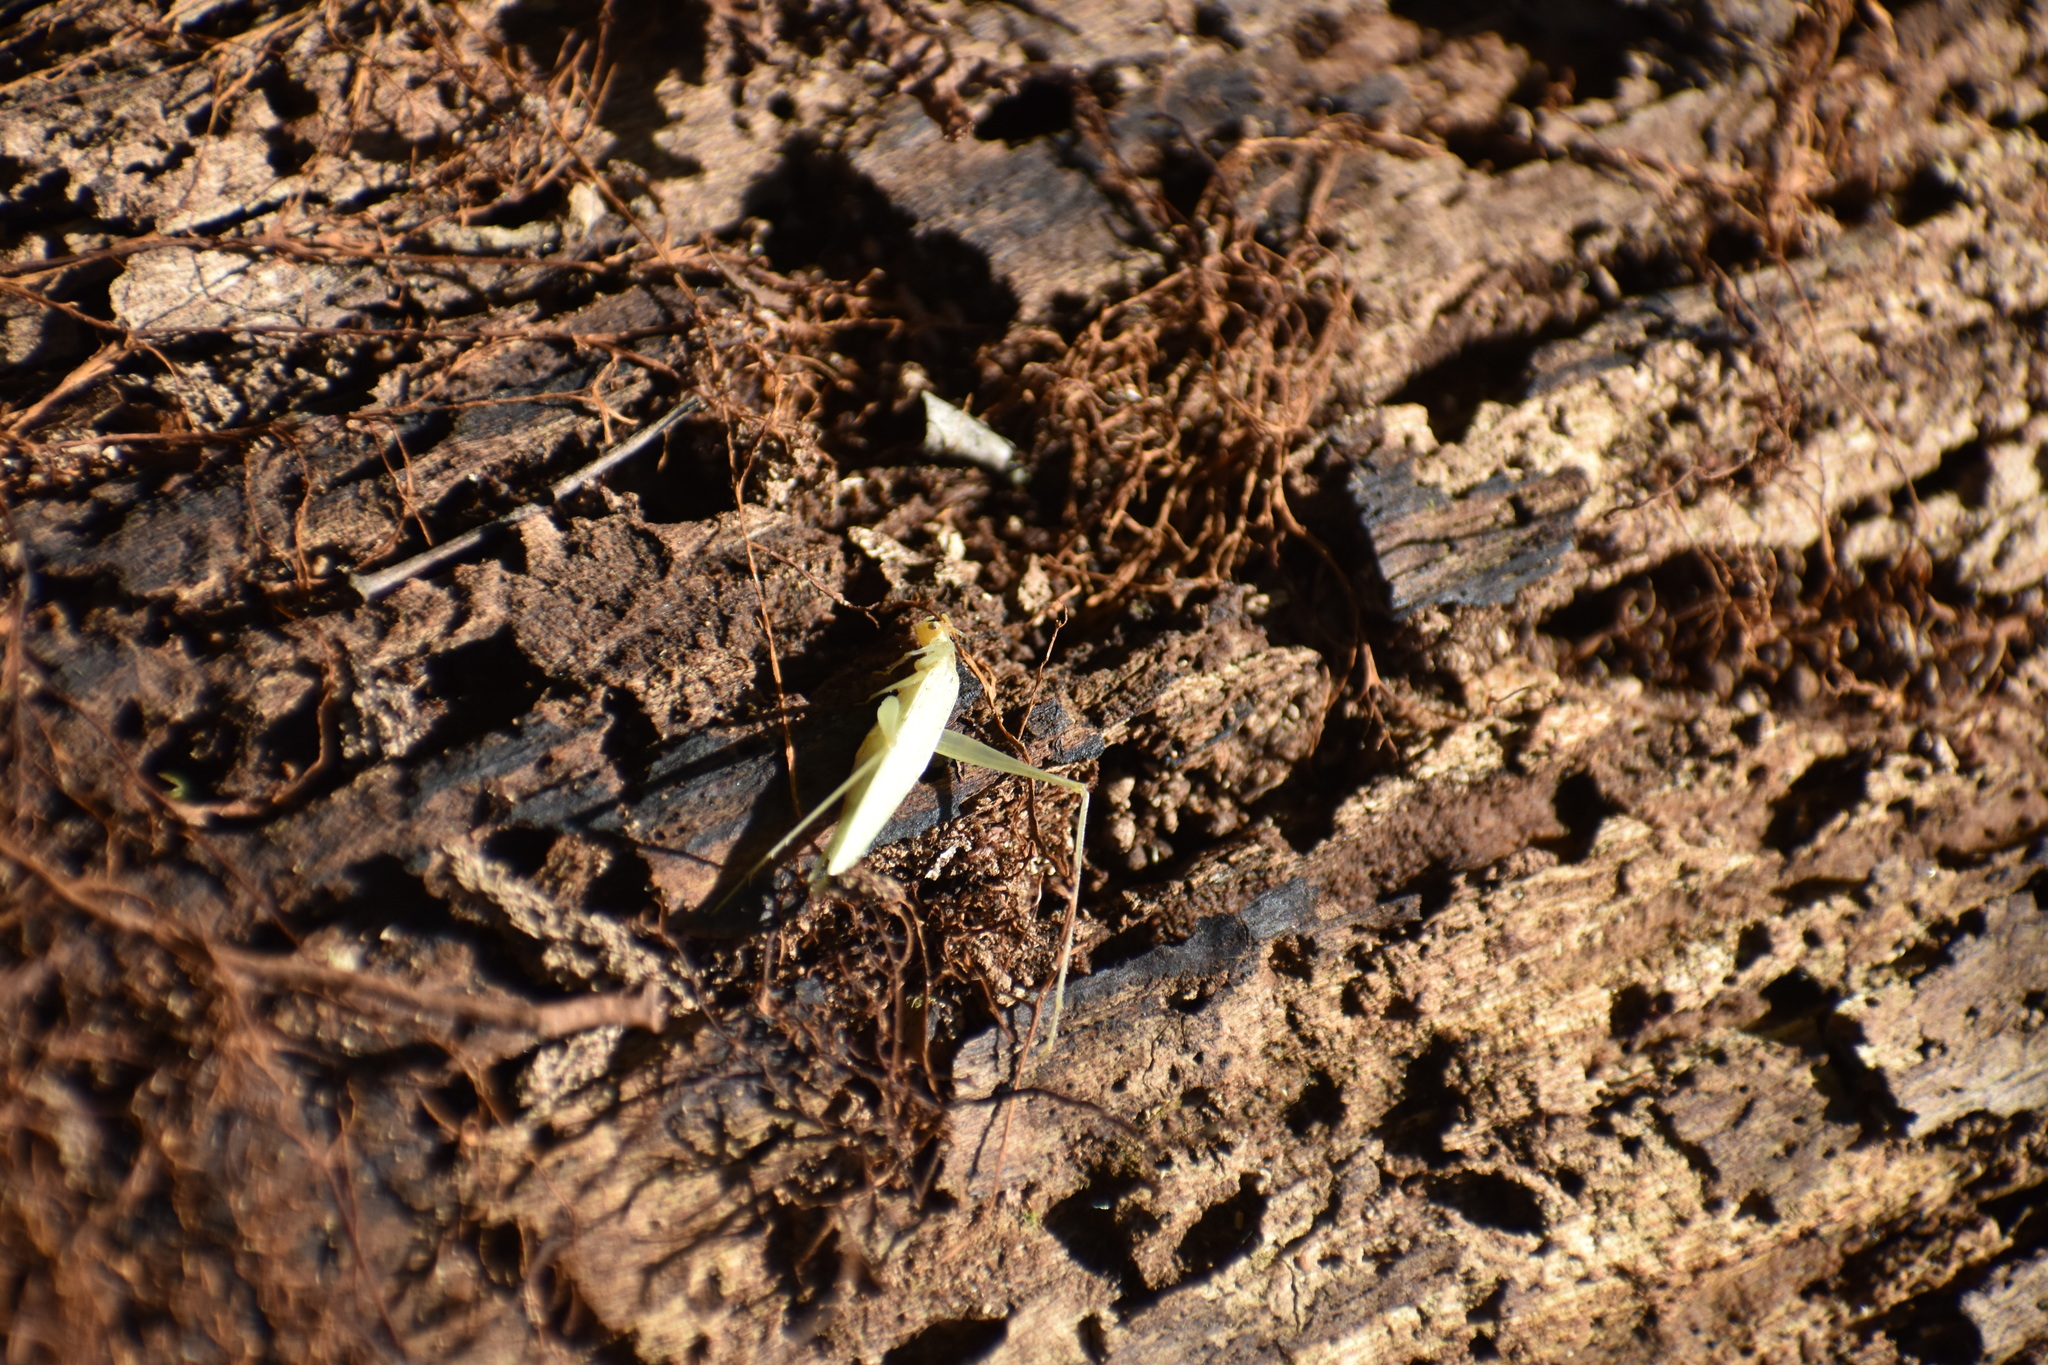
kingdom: Animalia
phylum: Arthropoda
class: Insecta
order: Orthoptera
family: Gryllidae
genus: Oecanthus
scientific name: Oecanthus niveus
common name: Narrow-winged tree cricket
